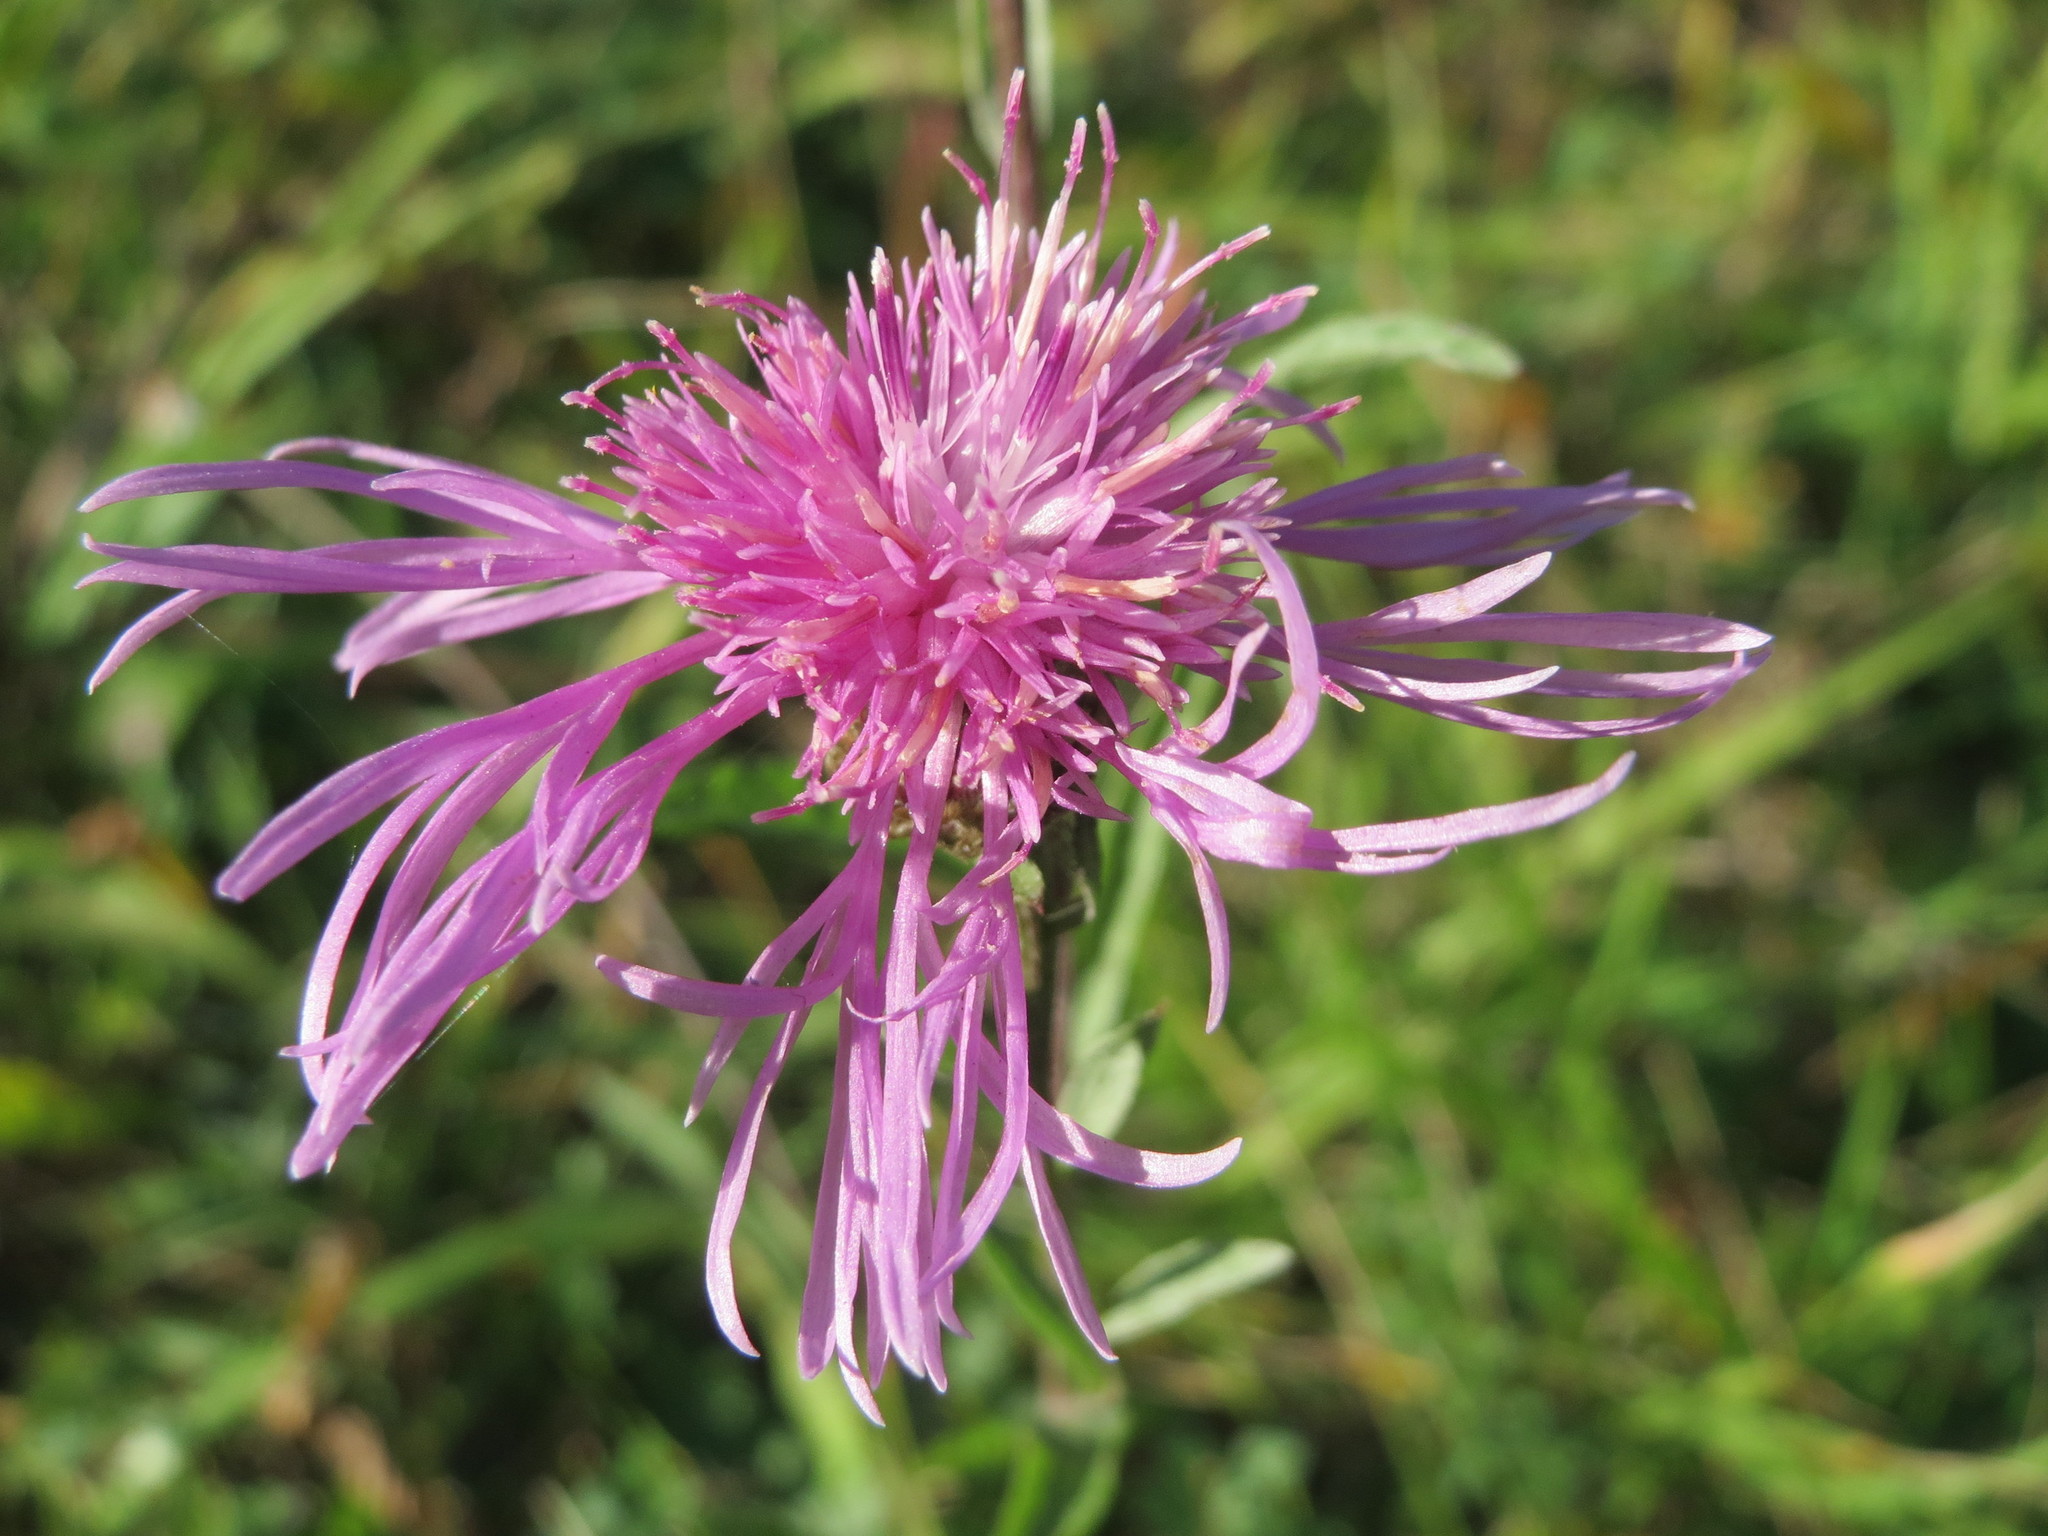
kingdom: Plantae
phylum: Tracheophyta
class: Magnoliopsida
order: Asterales
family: Asteraceae
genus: Centaurea
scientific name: Centaurea jacea
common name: Brown knapweed
